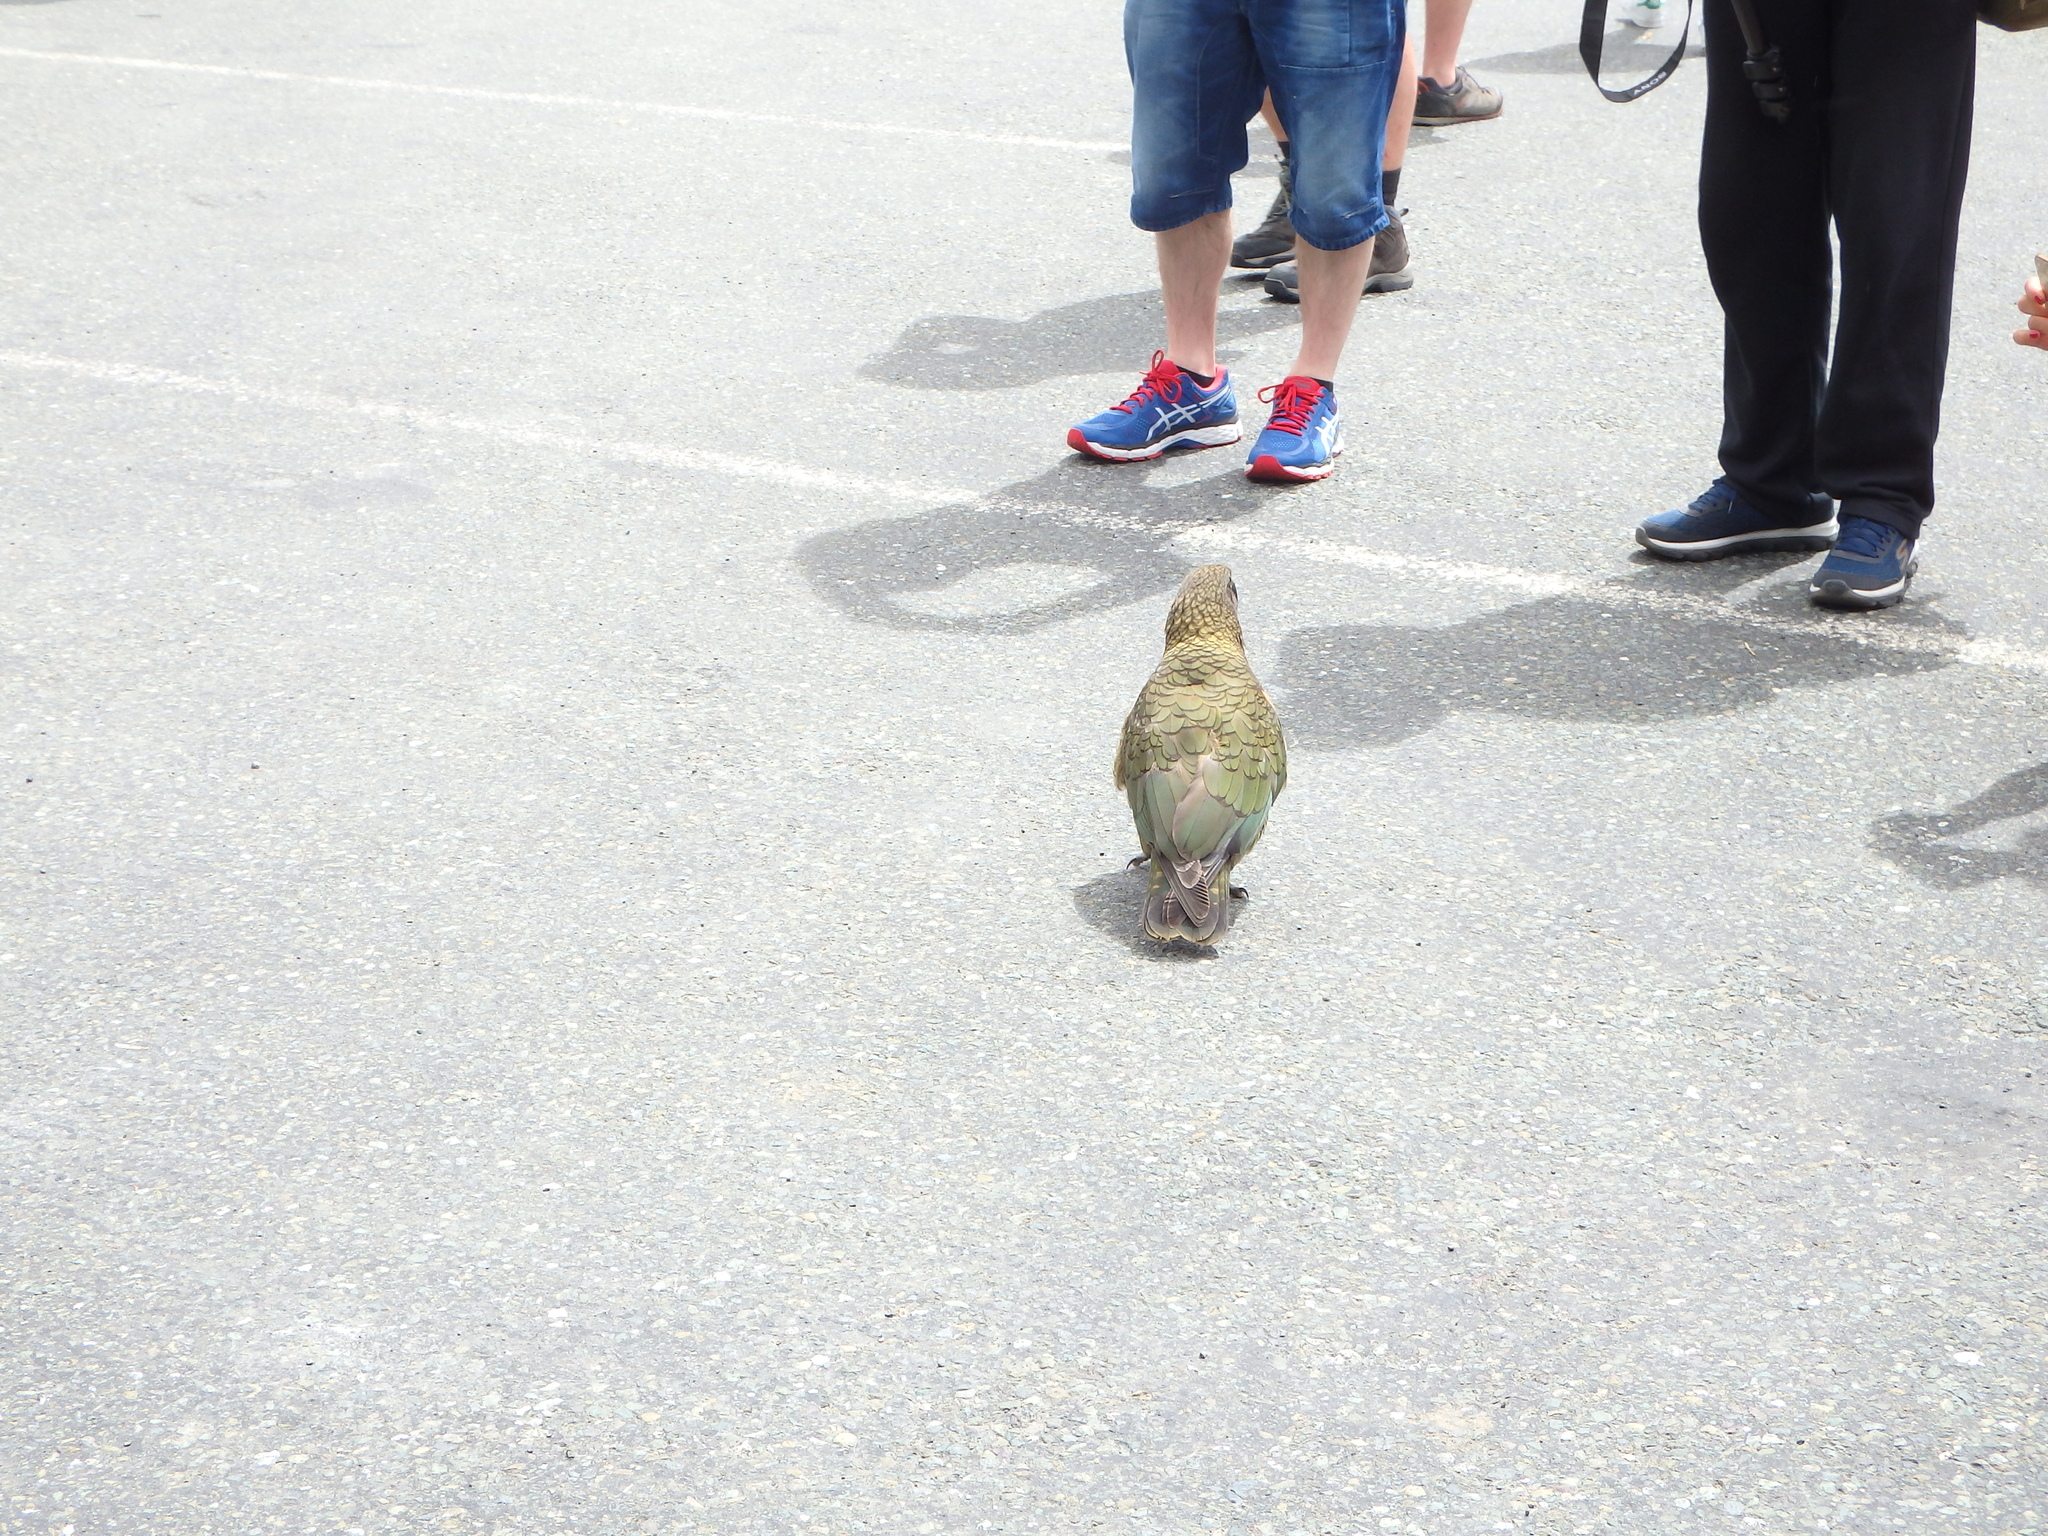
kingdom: Animalia
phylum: Chordata
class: Aves
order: Psittaciformes
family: Psittacidae
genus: Nestor
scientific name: Nestor notabilis
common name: Kea
